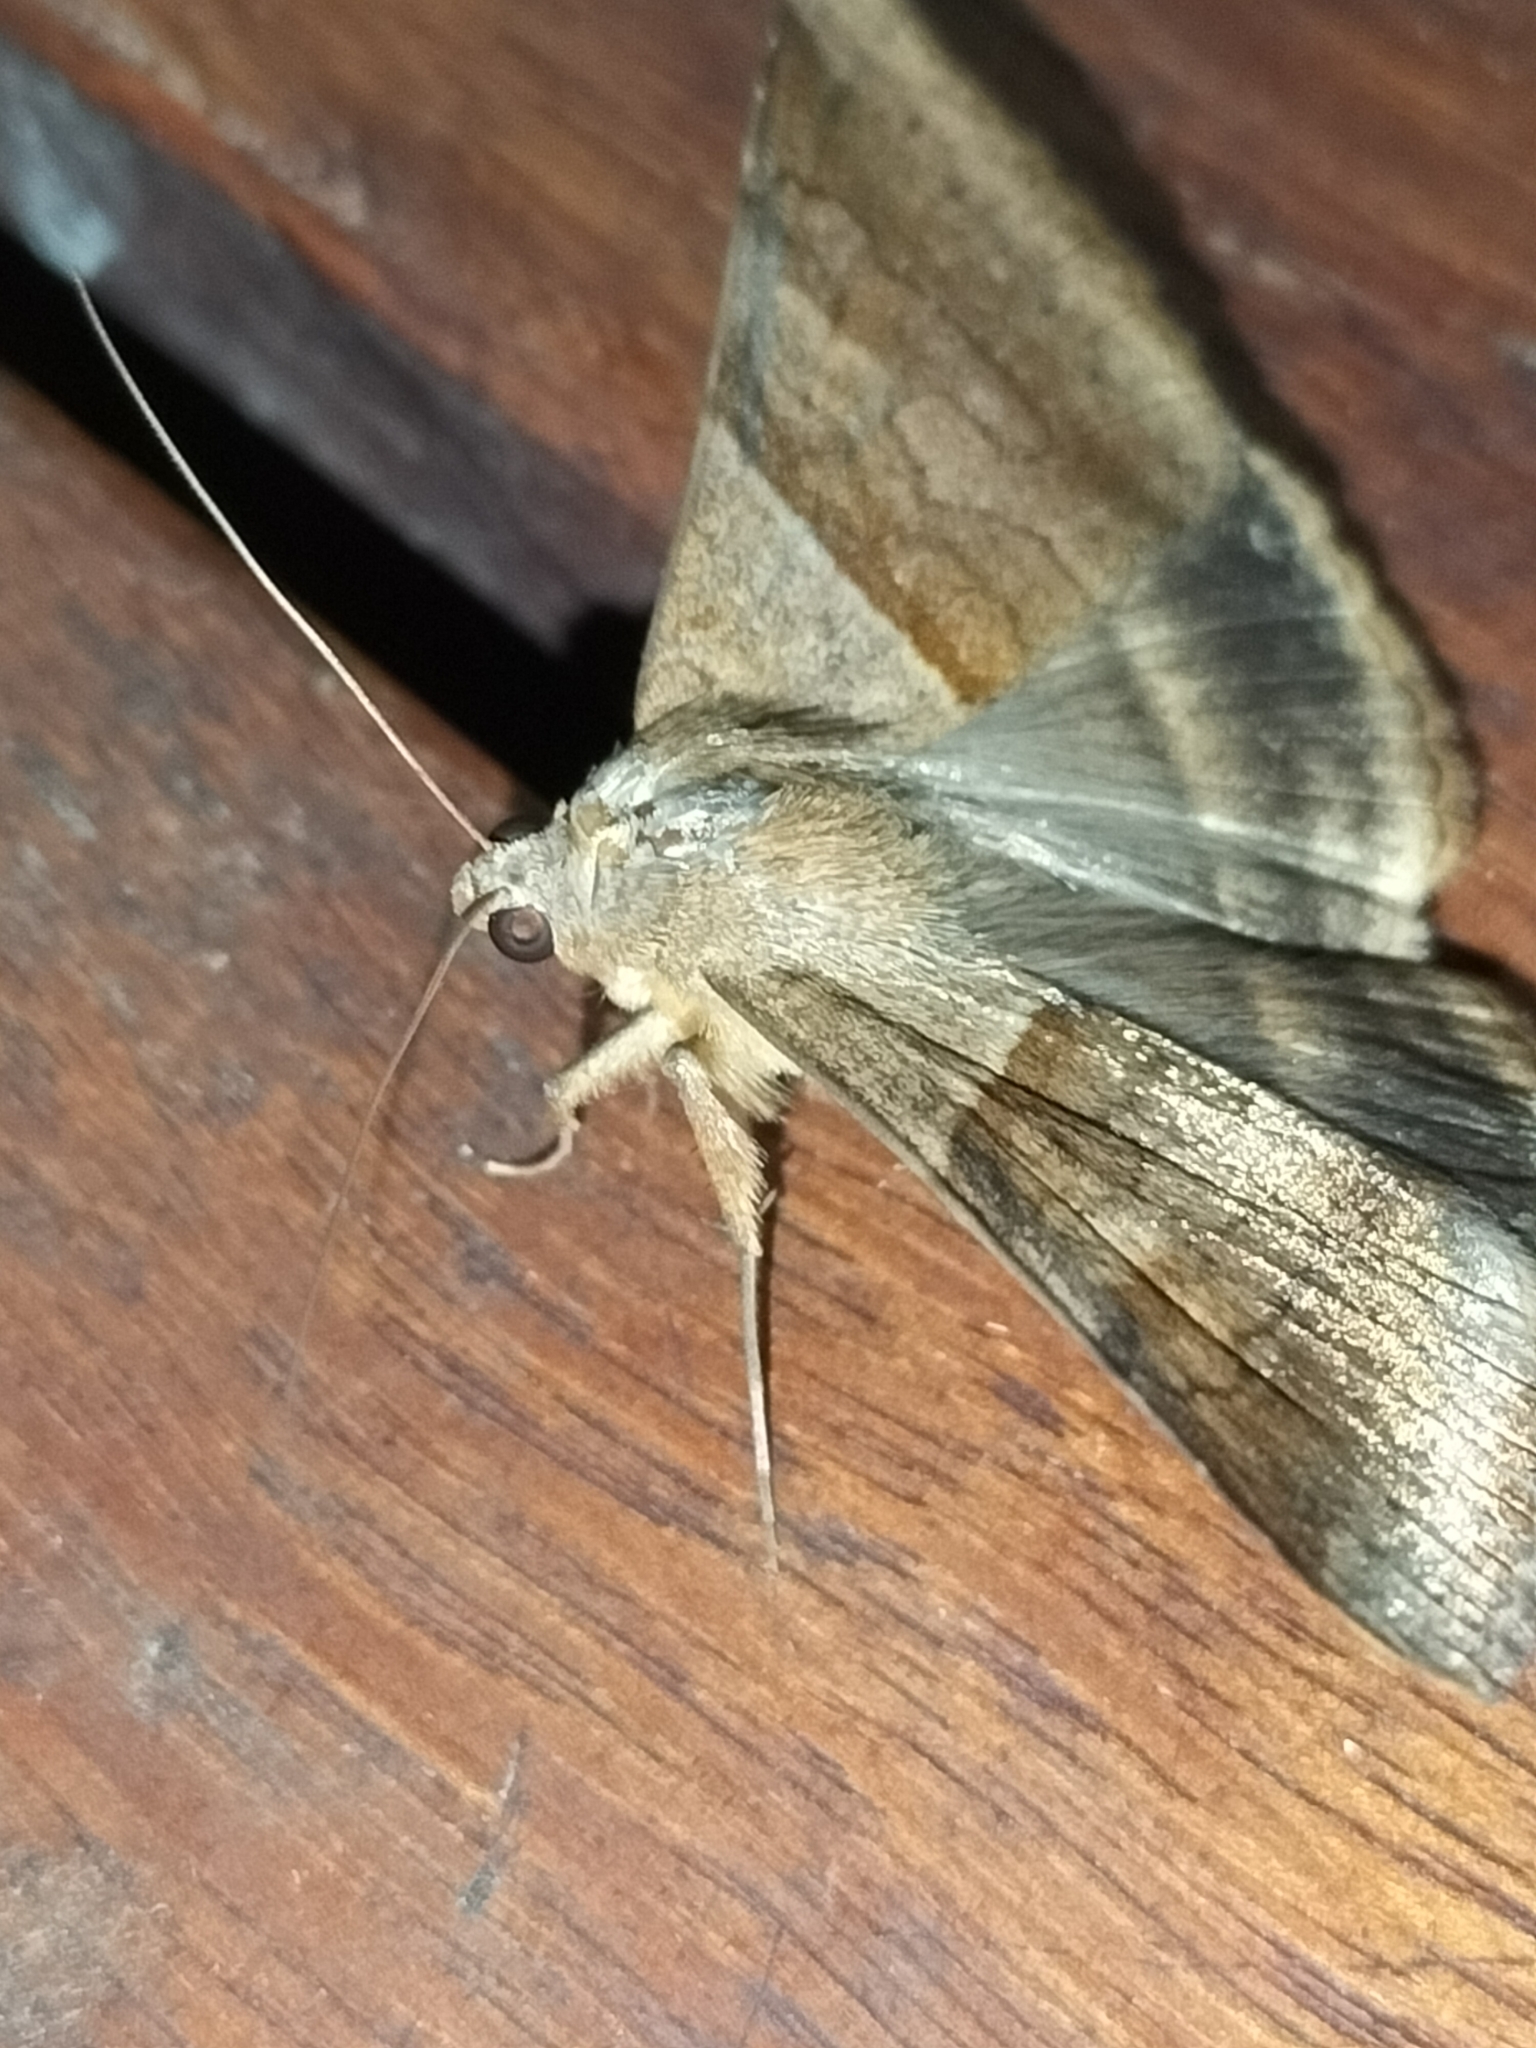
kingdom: Animalia
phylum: Arthropoda
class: Insecta
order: Lepidoptera
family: Erebidae
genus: Mocis
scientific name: Mocis trifasciata
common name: Triple-barred
